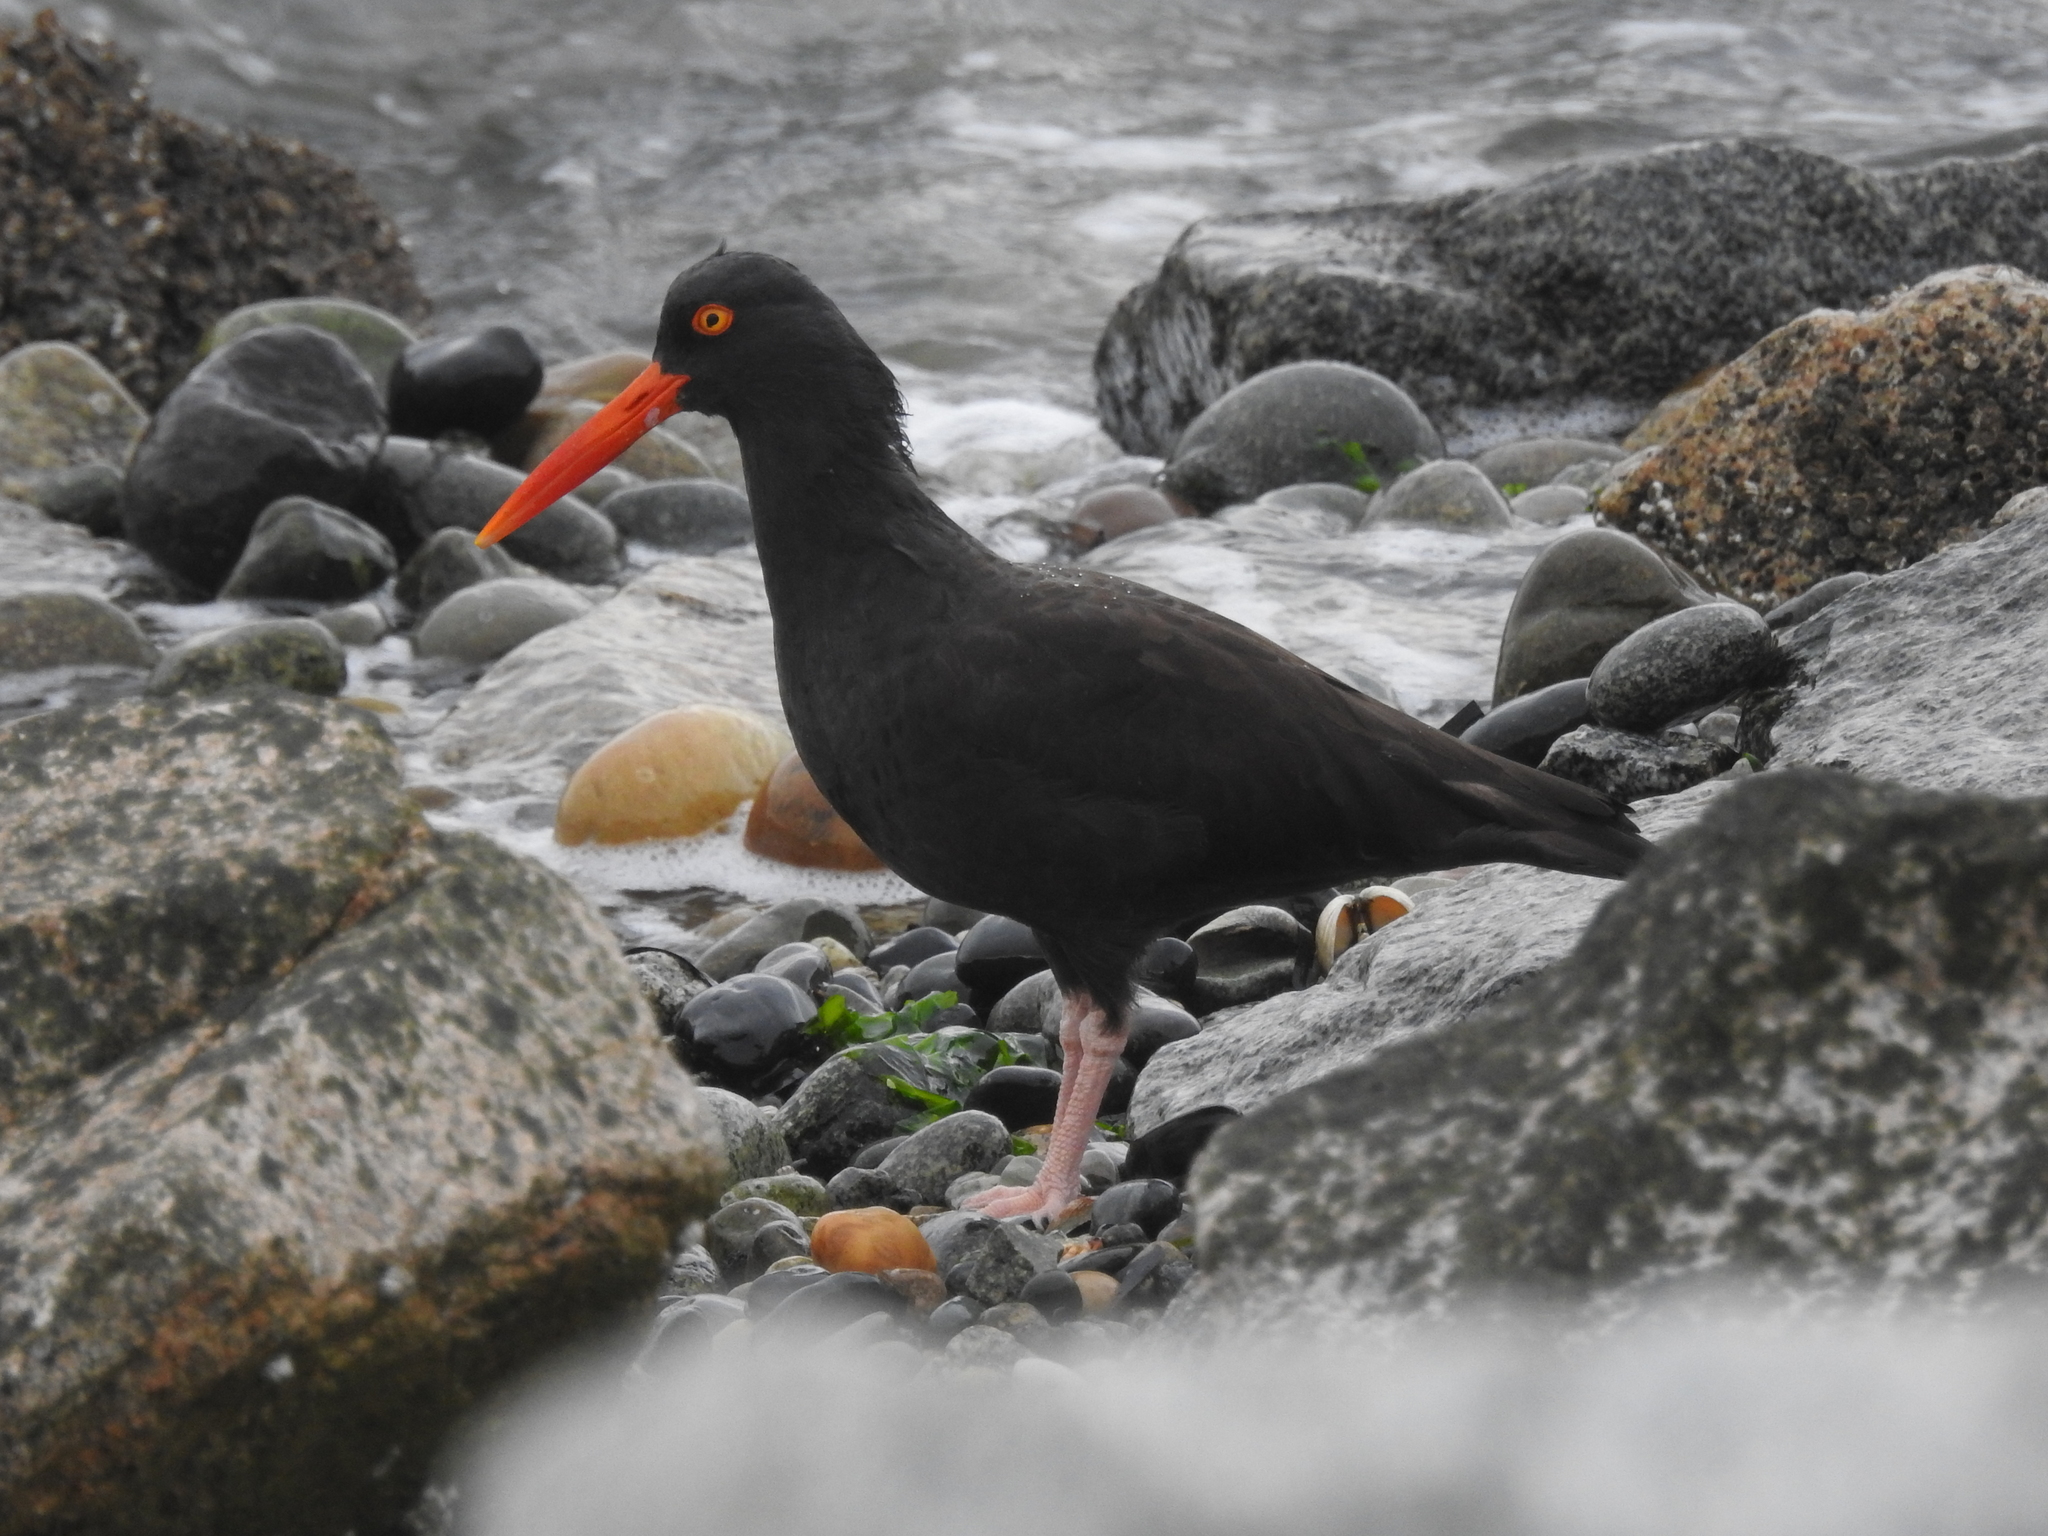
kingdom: Animalia
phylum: Chordata
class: Aves
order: Charadriiformes
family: Haematopodidae
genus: Haematopus
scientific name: Haematopus bachmani
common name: Black oystercatcher
